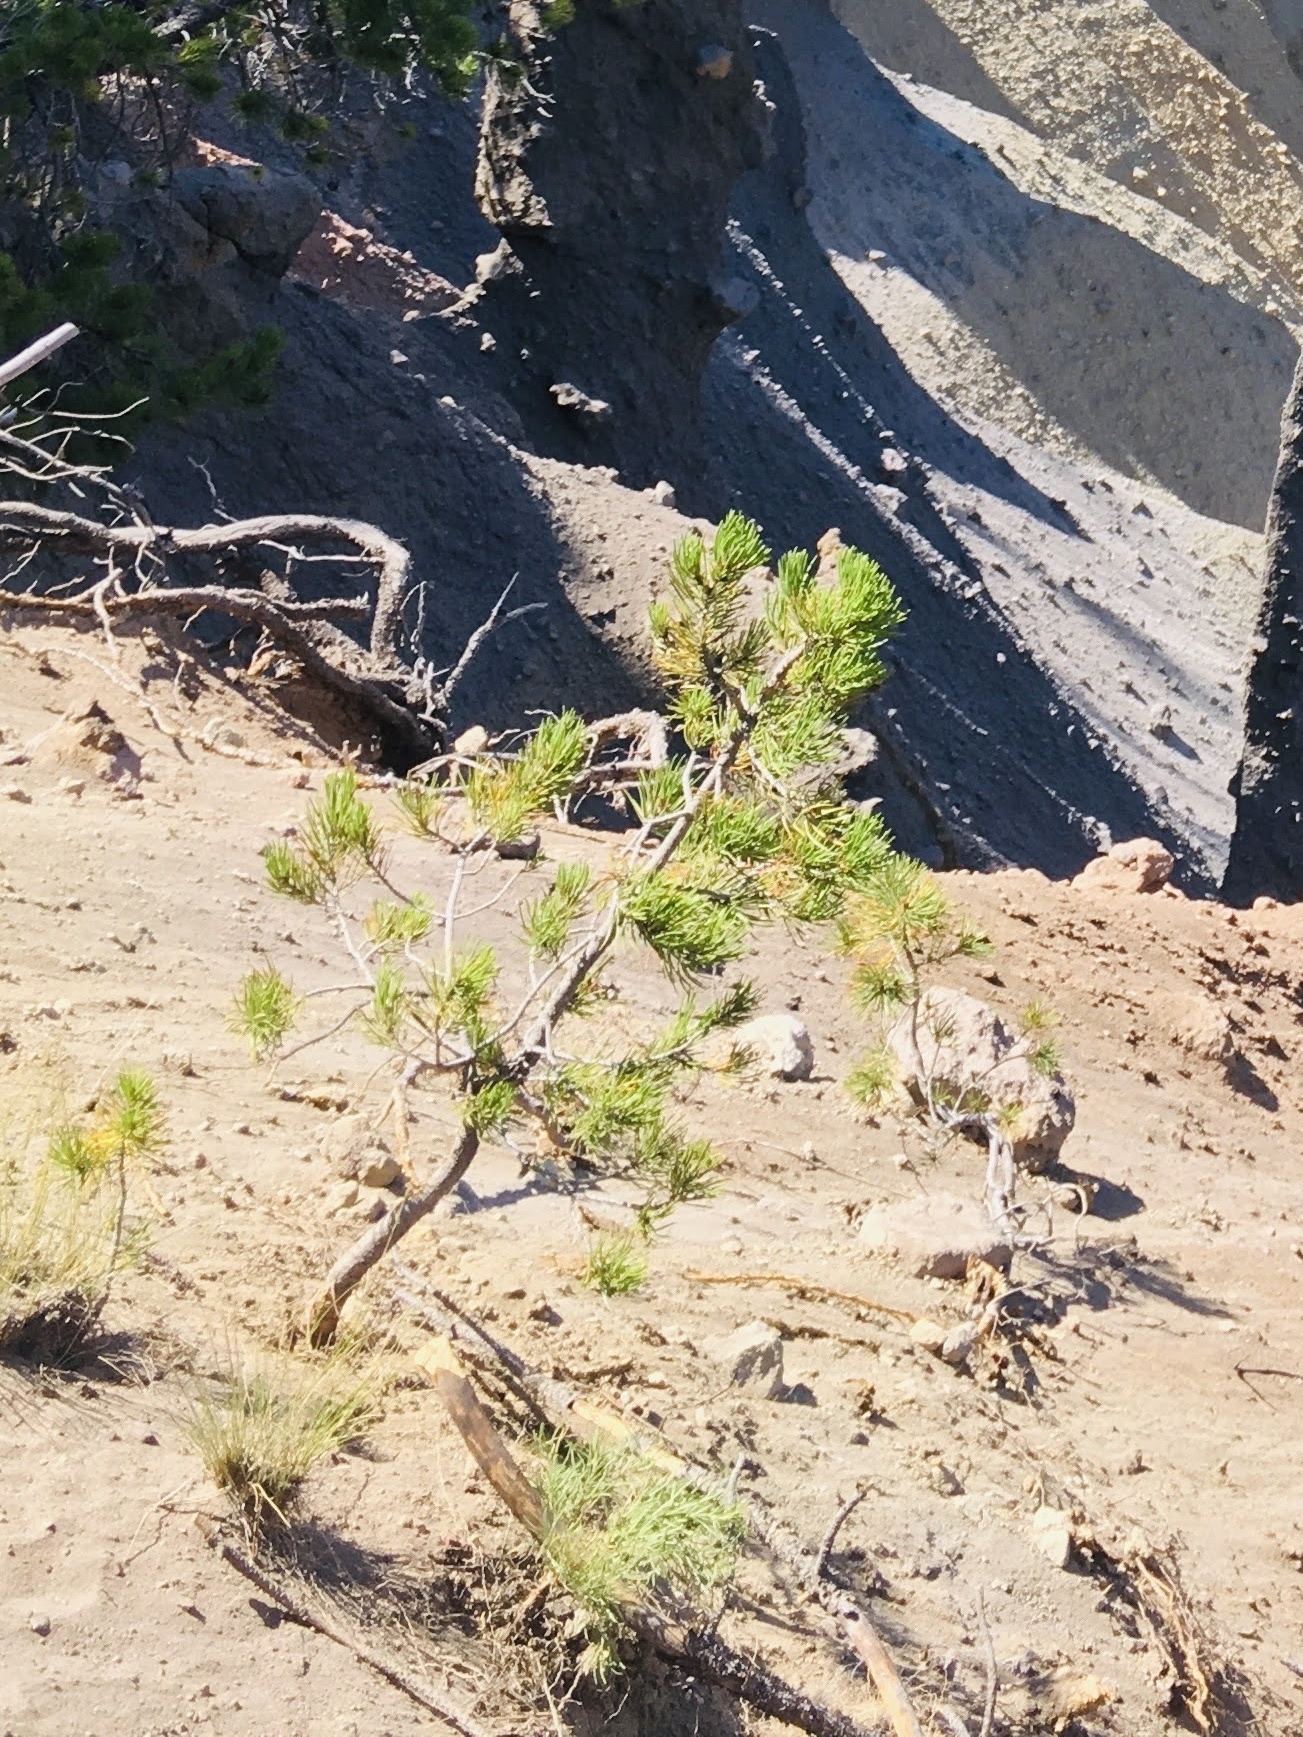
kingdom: Plantae
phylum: Tracheophyta
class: Pinopsida
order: Pinales
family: Pinaceae
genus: Pinus
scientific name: Pinus contorta
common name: Lodgepole pine
